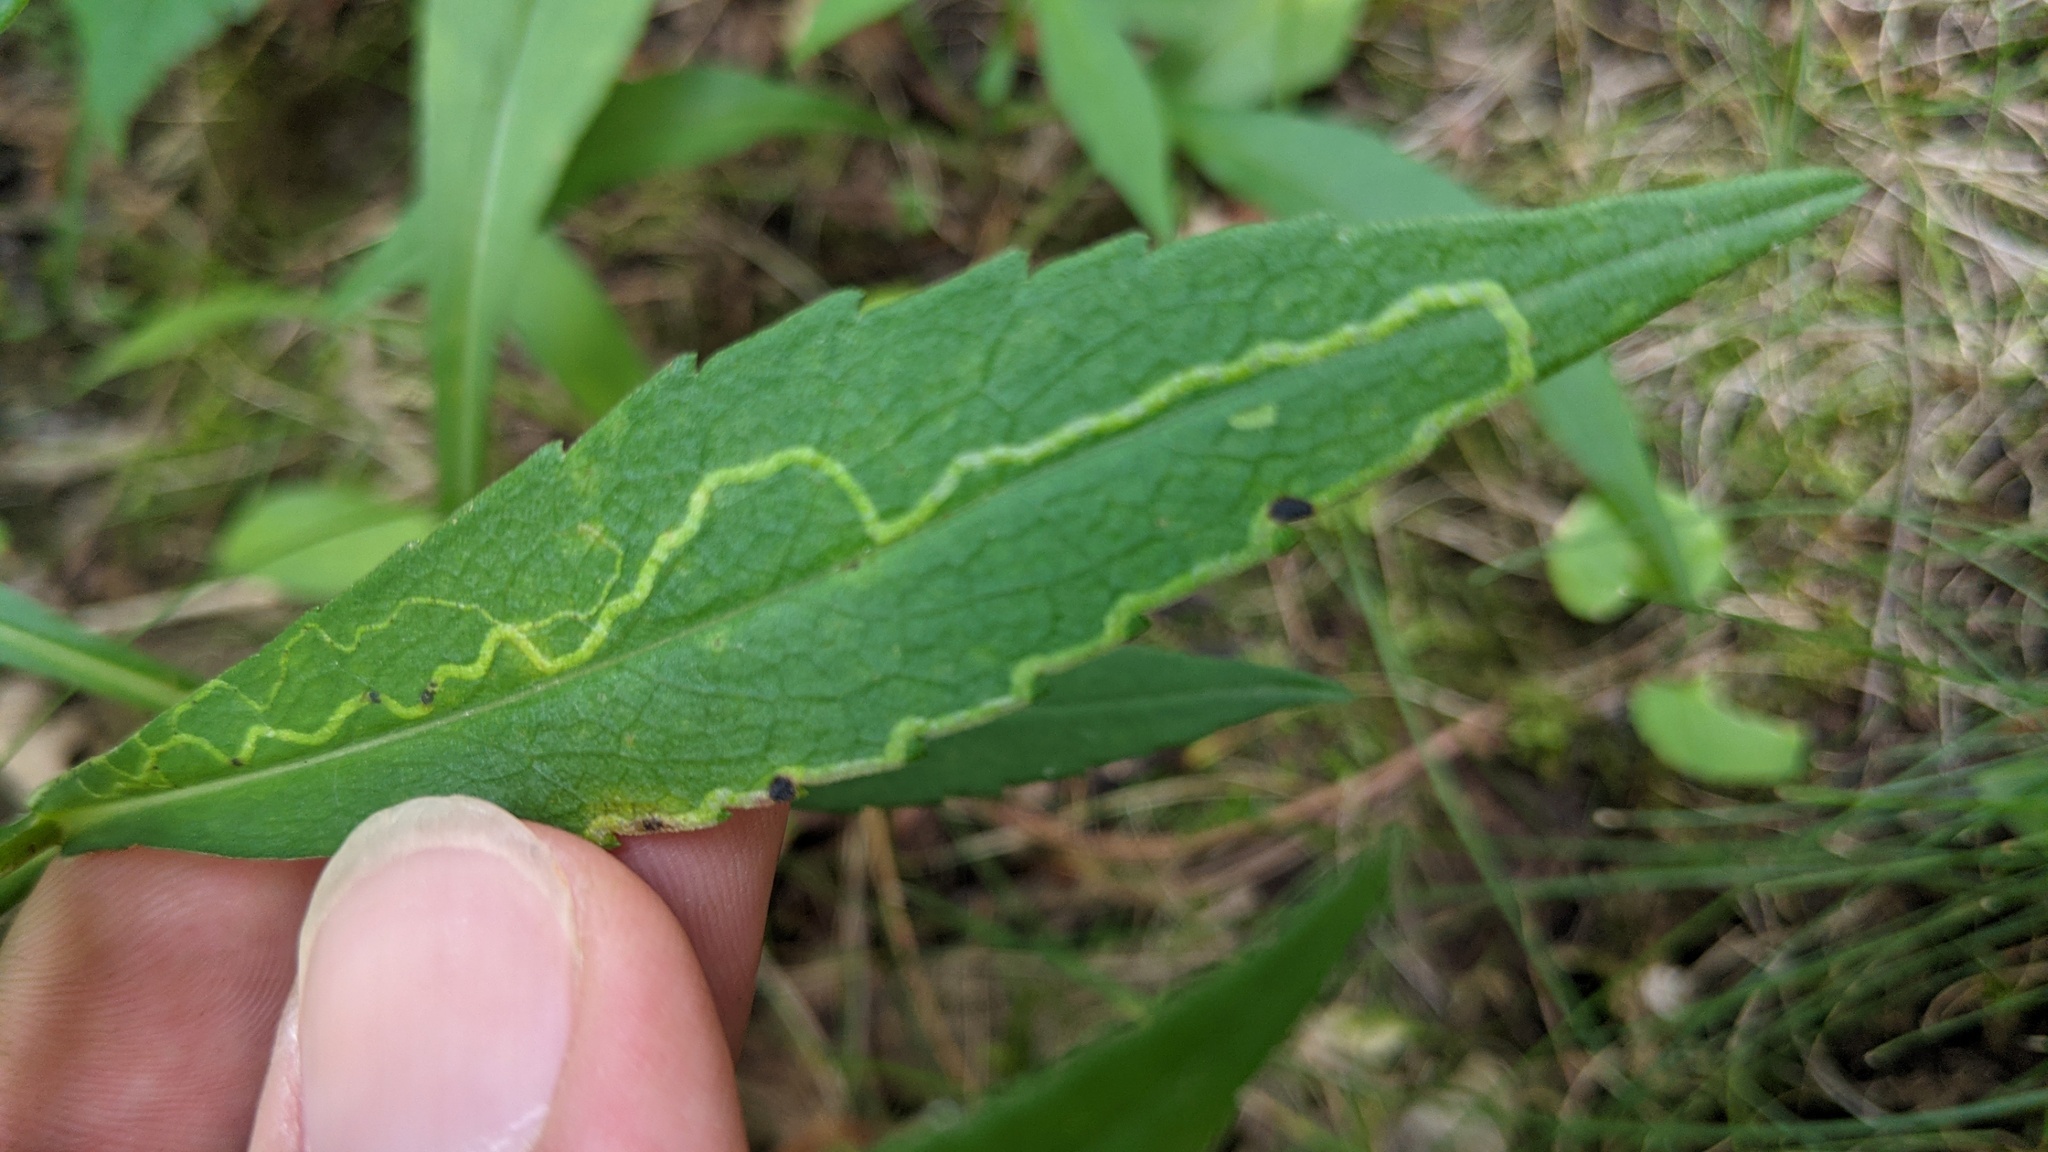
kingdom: Animalia
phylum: Arthropoda
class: Insecta
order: Diptera
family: Agromyzidae
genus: Ophiomyia
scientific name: Ophiomyia parda
